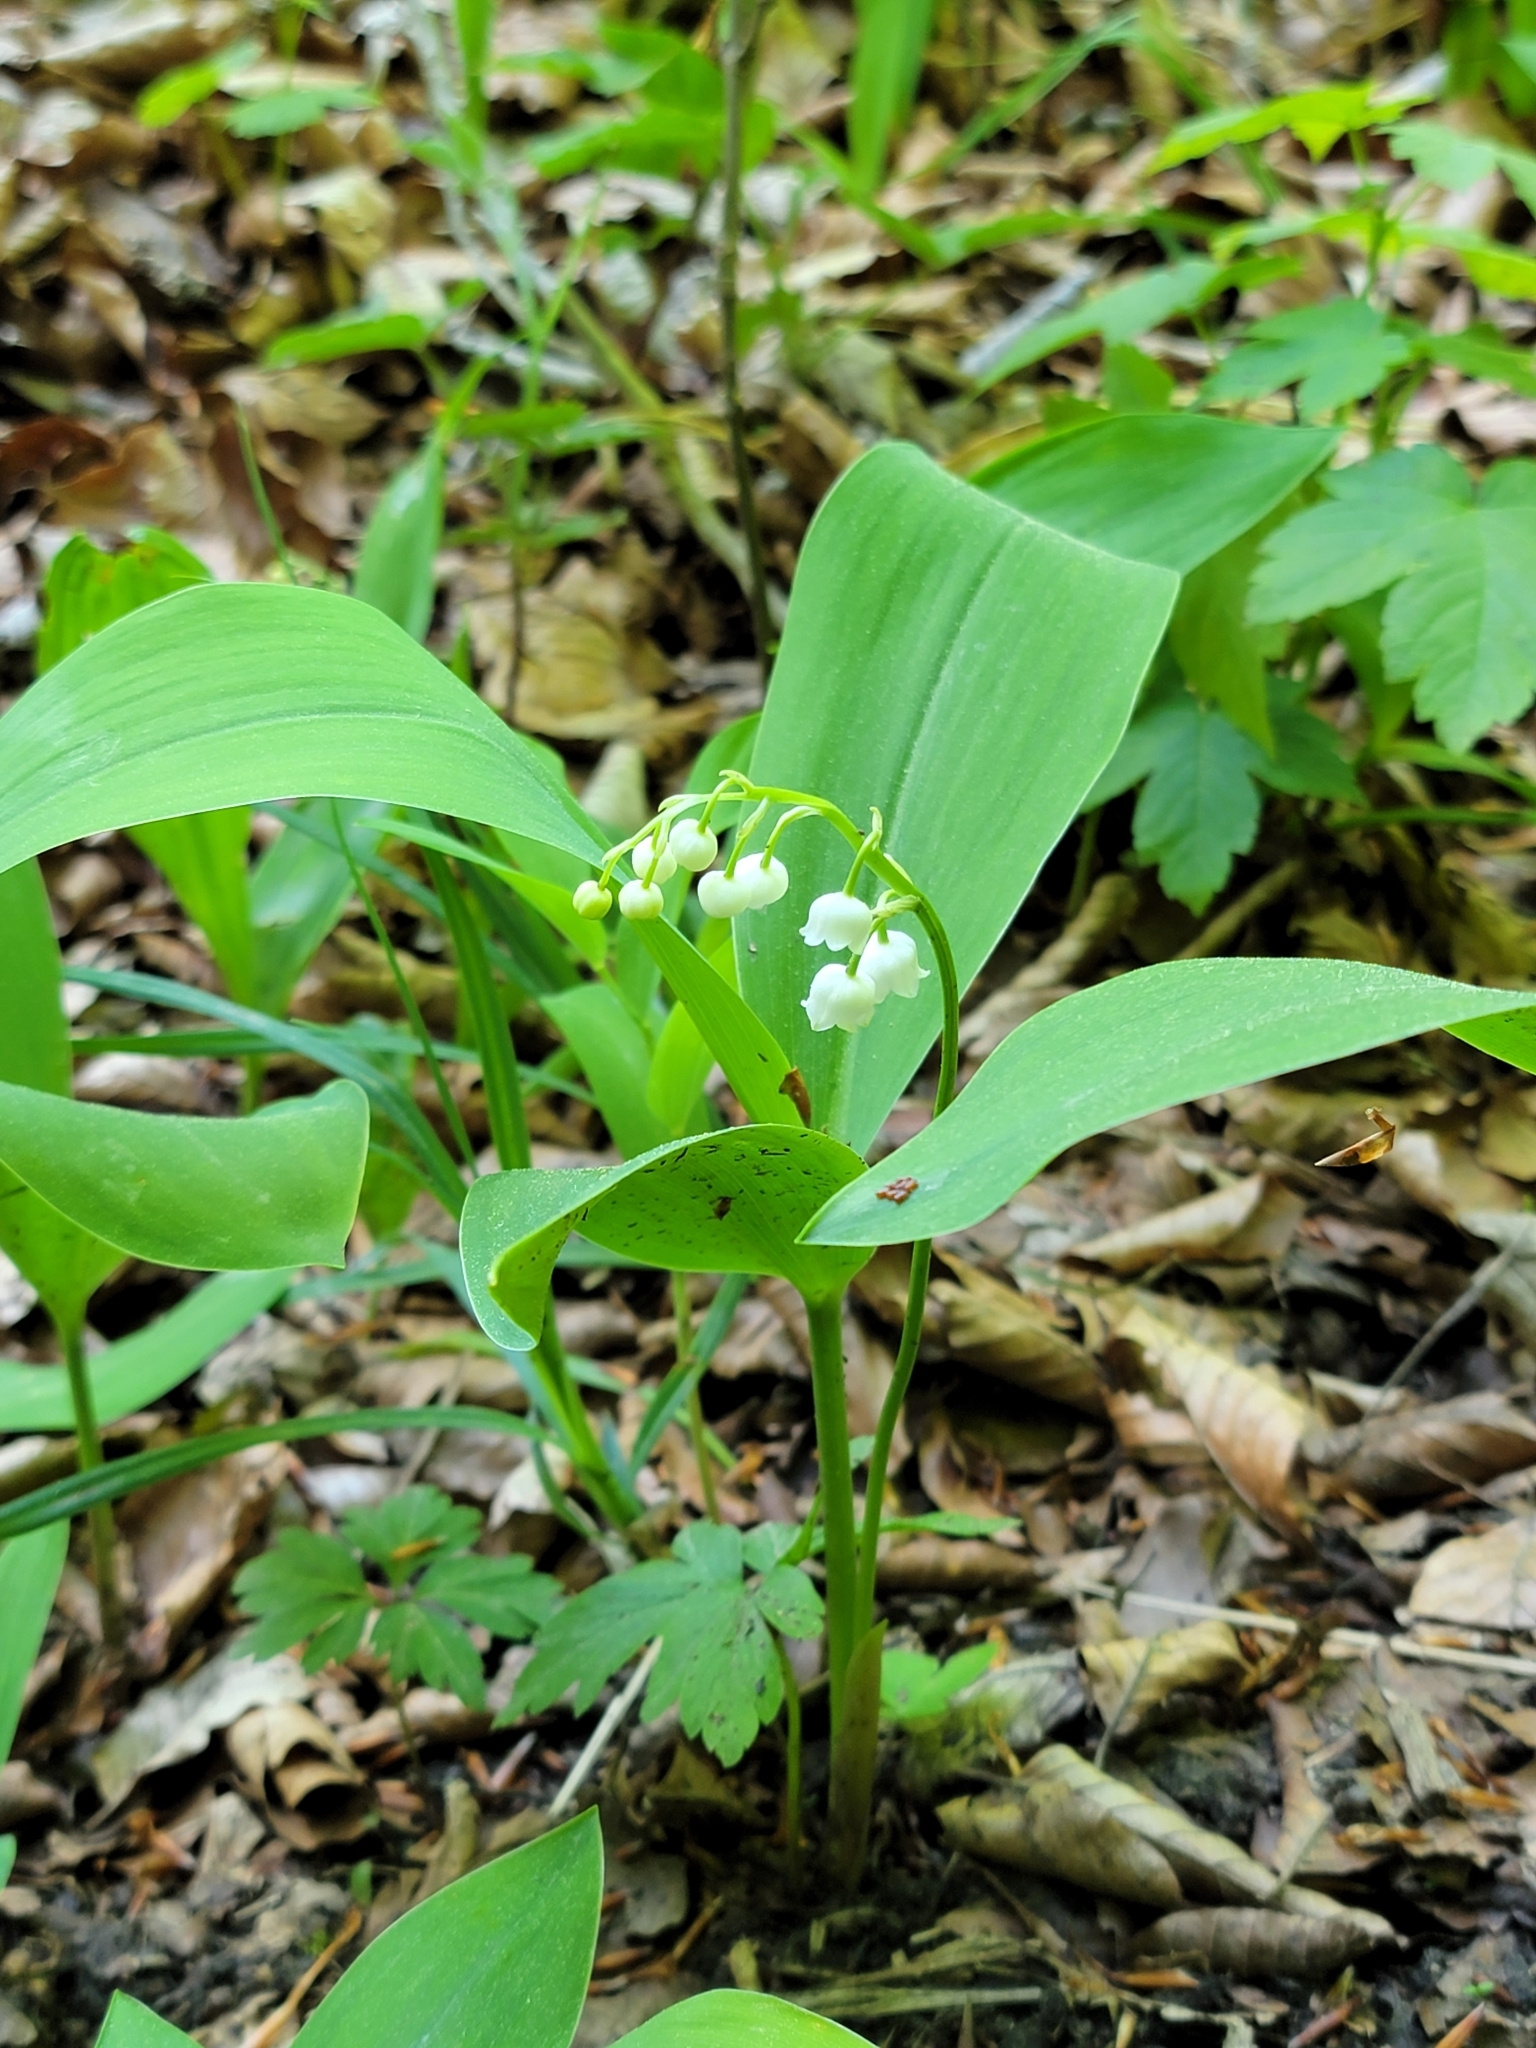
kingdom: Plantae
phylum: Tracheophyta
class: Liliopsida
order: Asparagales
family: Asparagaceae
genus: Convallaria
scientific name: Convallaria majalis
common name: Lily-of-the-valley
